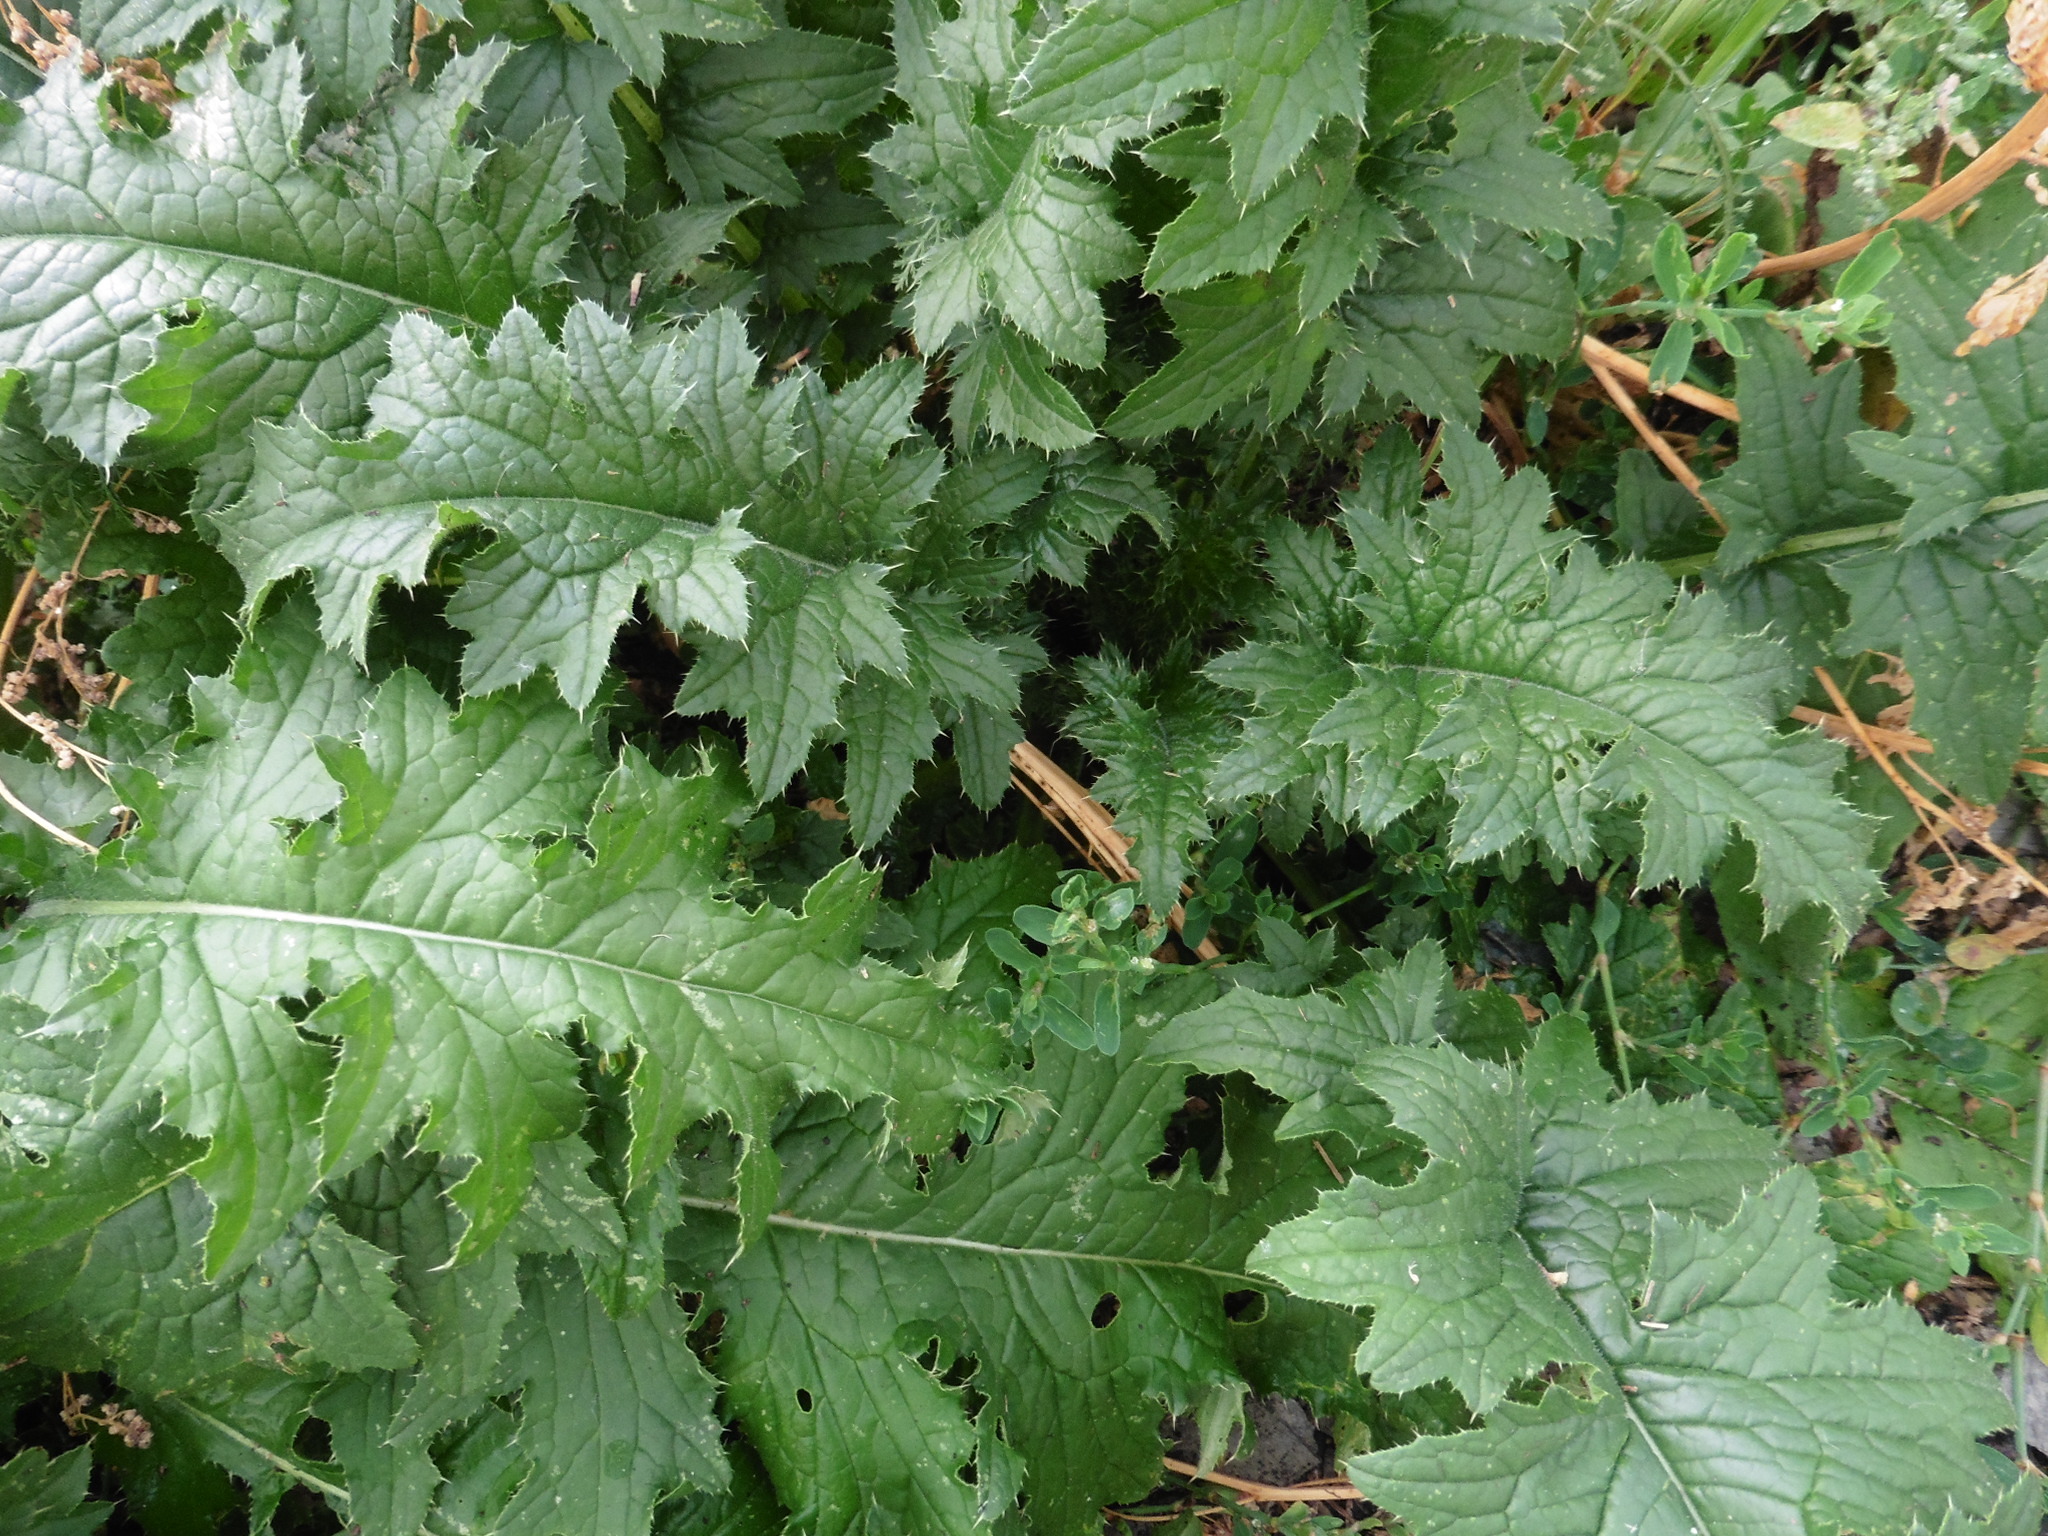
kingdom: Plantae
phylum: Tracheophyta
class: Magnoliopsida
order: Asterales
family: Asteraceae
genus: Carduus
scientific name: Carduus crispus
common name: Welted thistle
